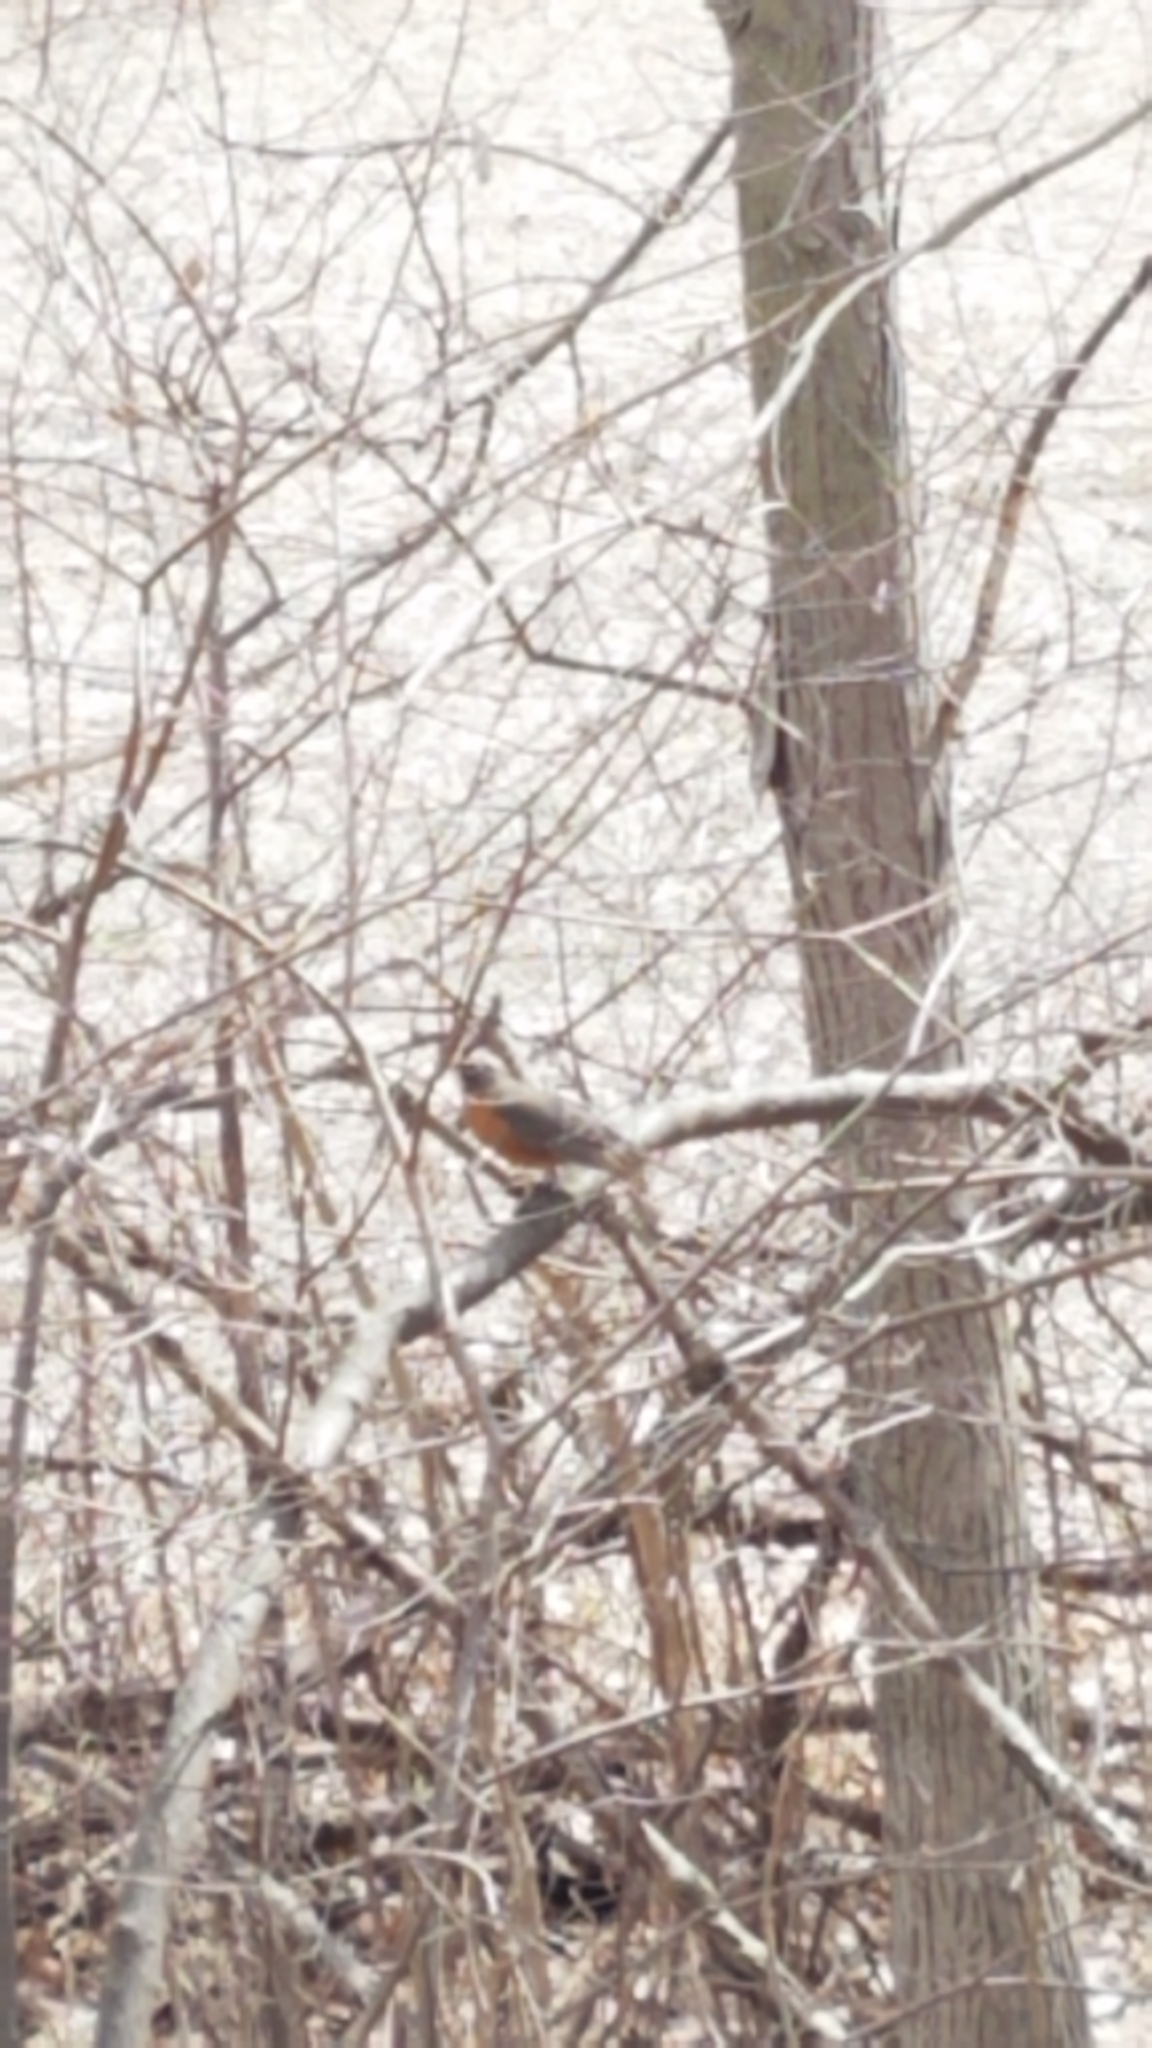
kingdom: Animalia
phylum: Chordata
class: Aves
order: Passeriformes
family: Turdidae
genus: Turdus
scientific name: Turdus migratorius
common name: American robin
